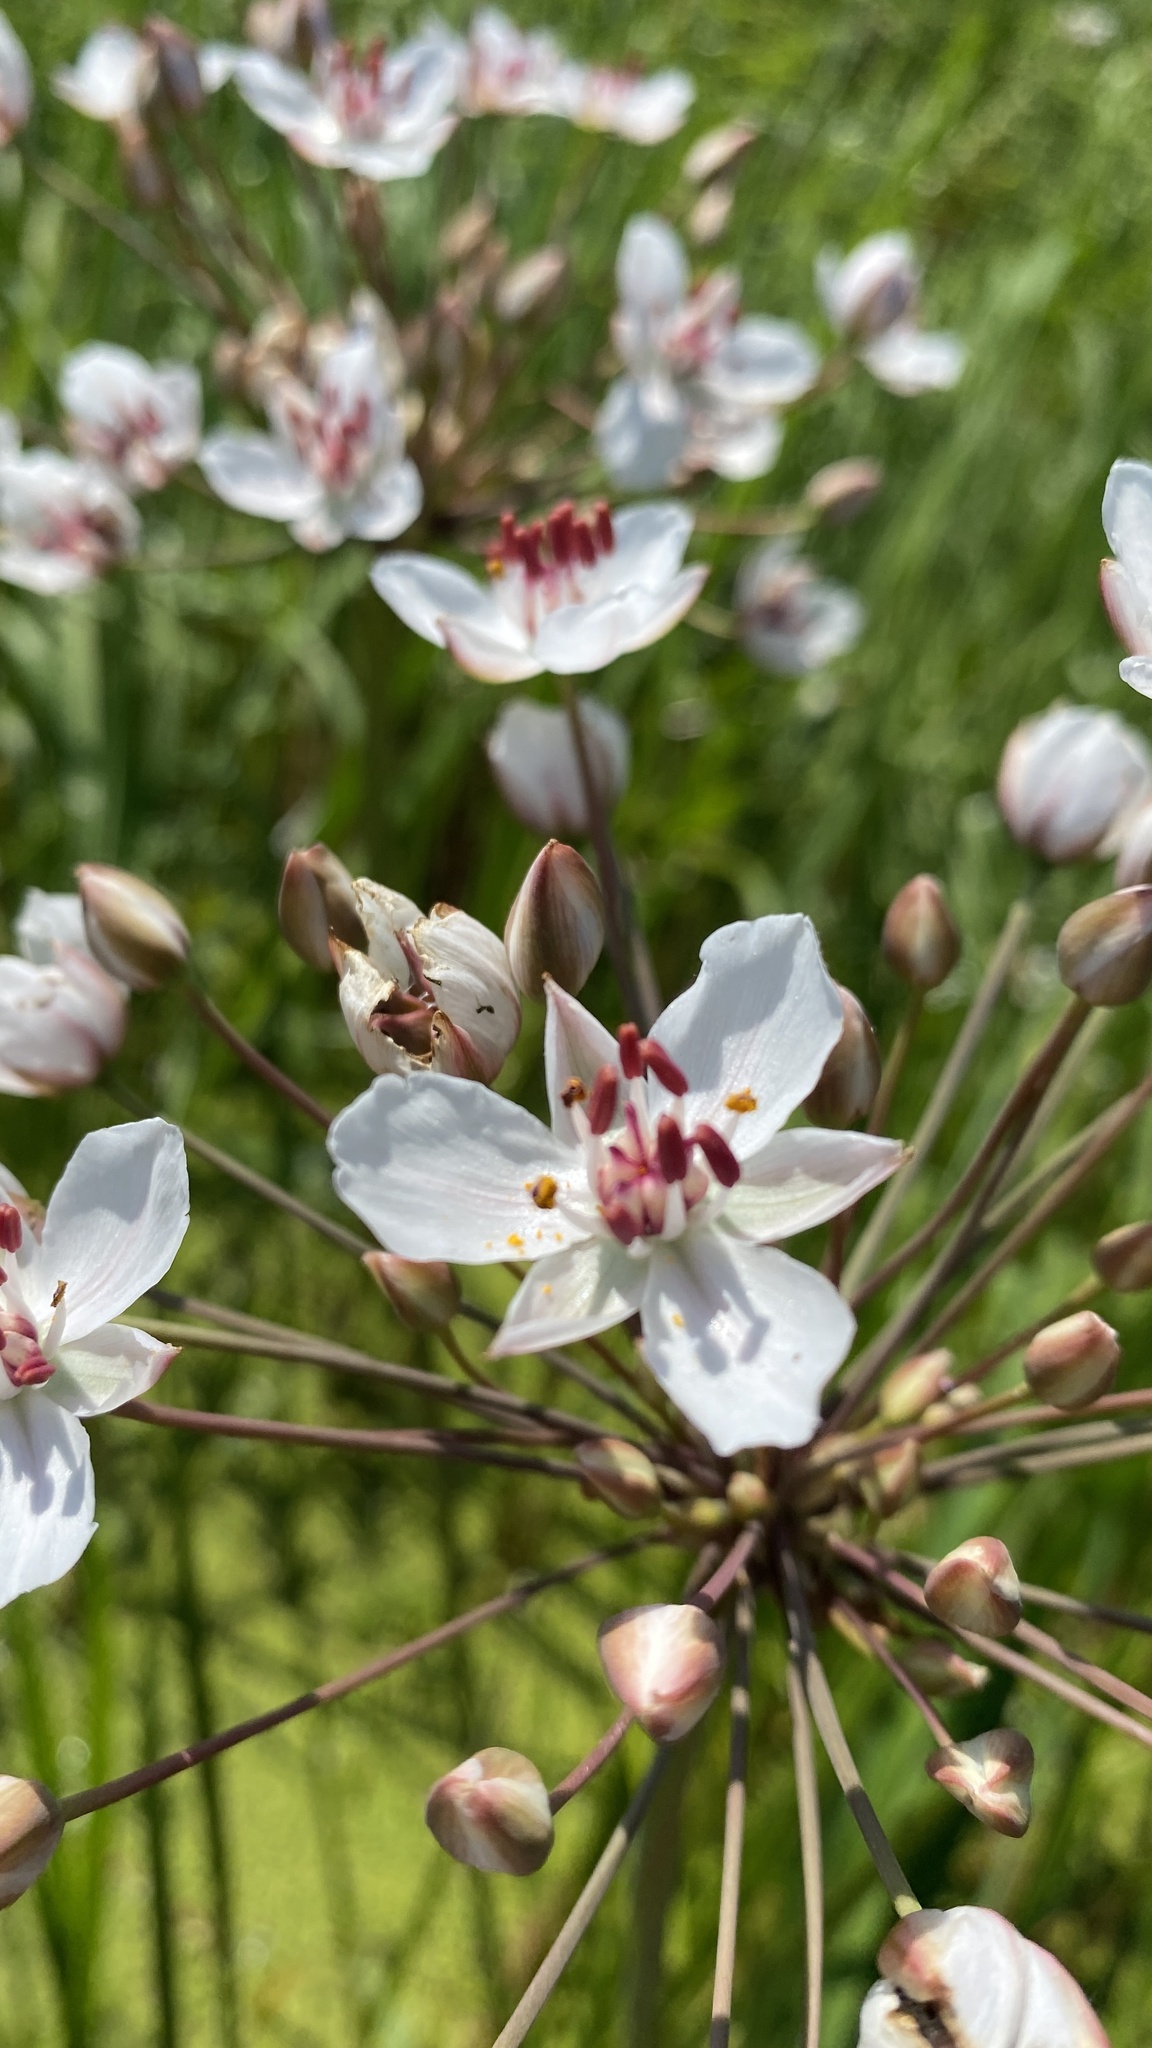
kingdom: Plantae
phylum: Tracheophyta
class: Liliopsida
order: Alismatales
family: Butomaceae
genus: Butomus
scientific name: Butomus umbellatus
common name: Flowering-rush
